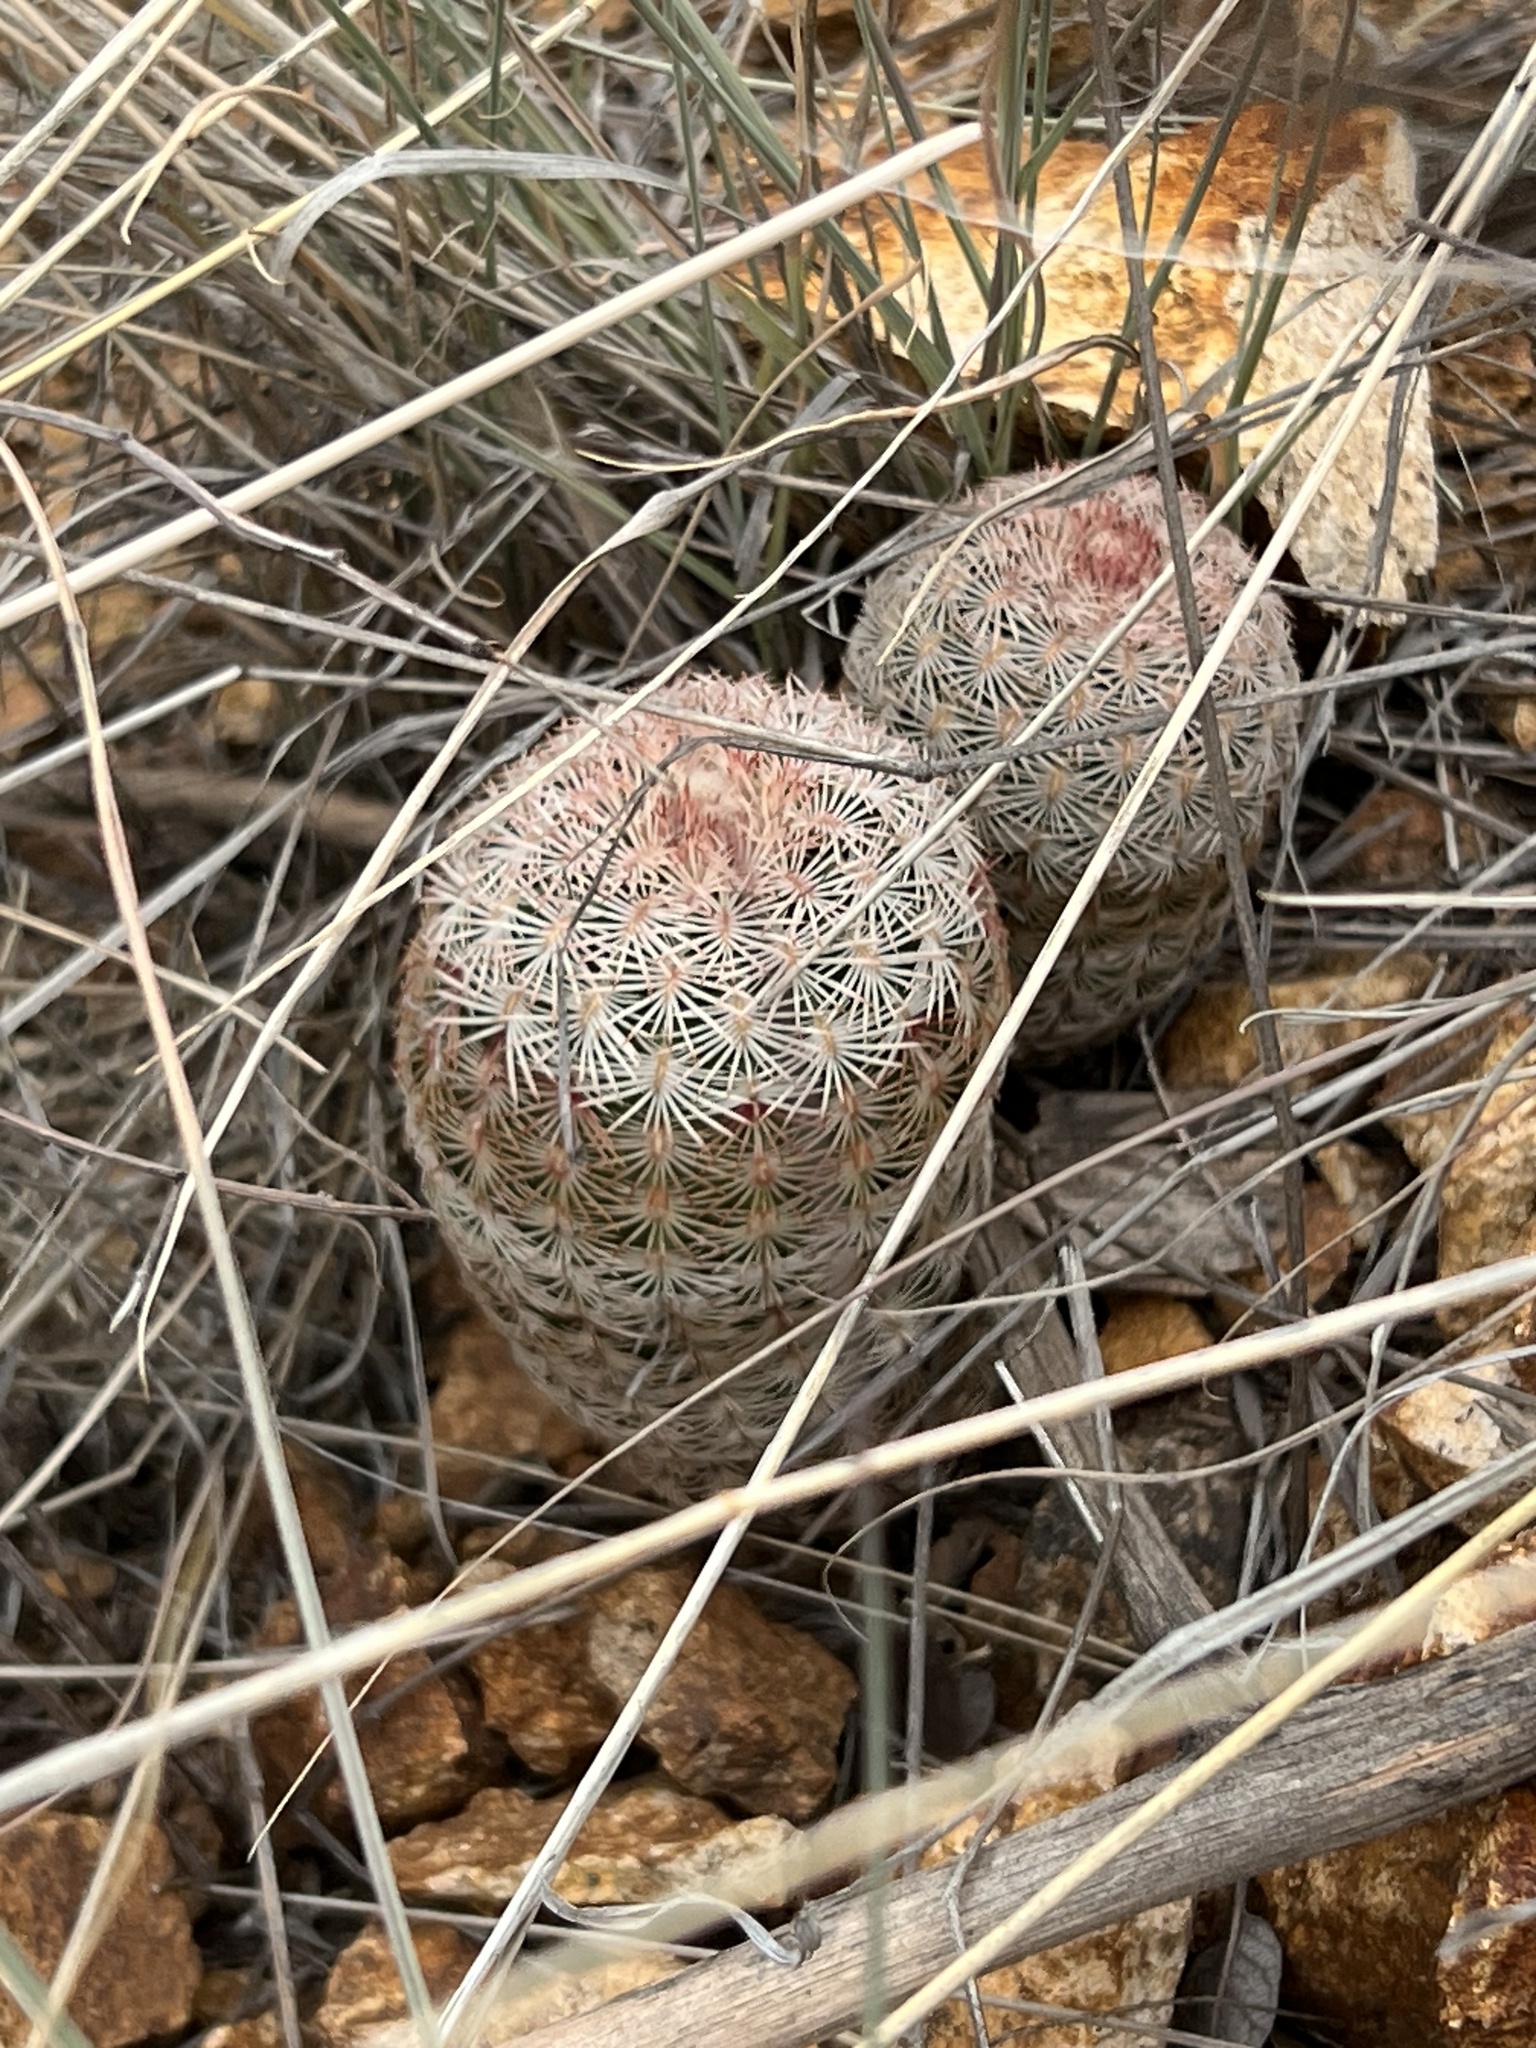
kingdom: Plantae
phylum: Tracheophyta
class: Magnoliopsida
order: Caryophyllales
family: Cactaceae
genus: Echinocereus
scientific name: Echinocereus rigidissimus
